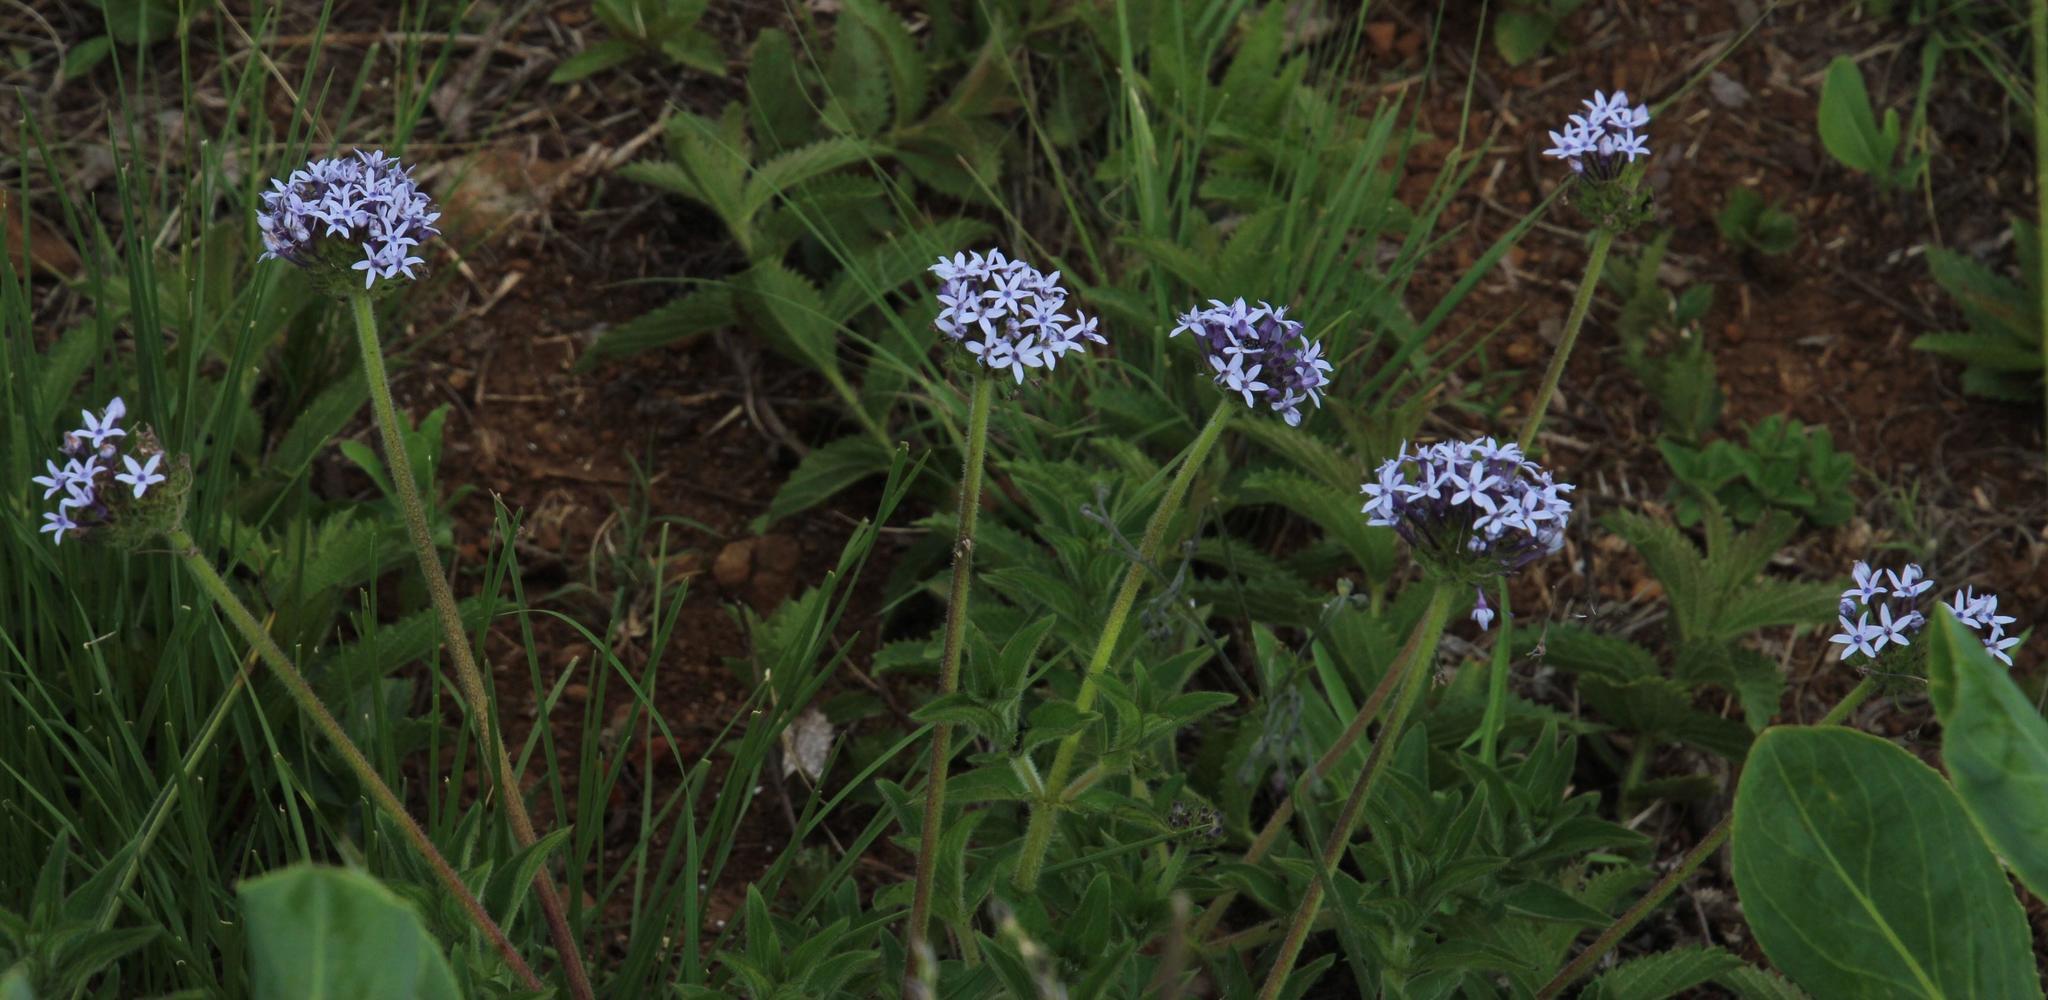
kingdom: Plantae
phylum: Tracheophyta
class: Magnoliopsida
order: Gentianales
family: Rubiaceae
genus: Pentanisia
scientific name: Pentanisia angustifolia
